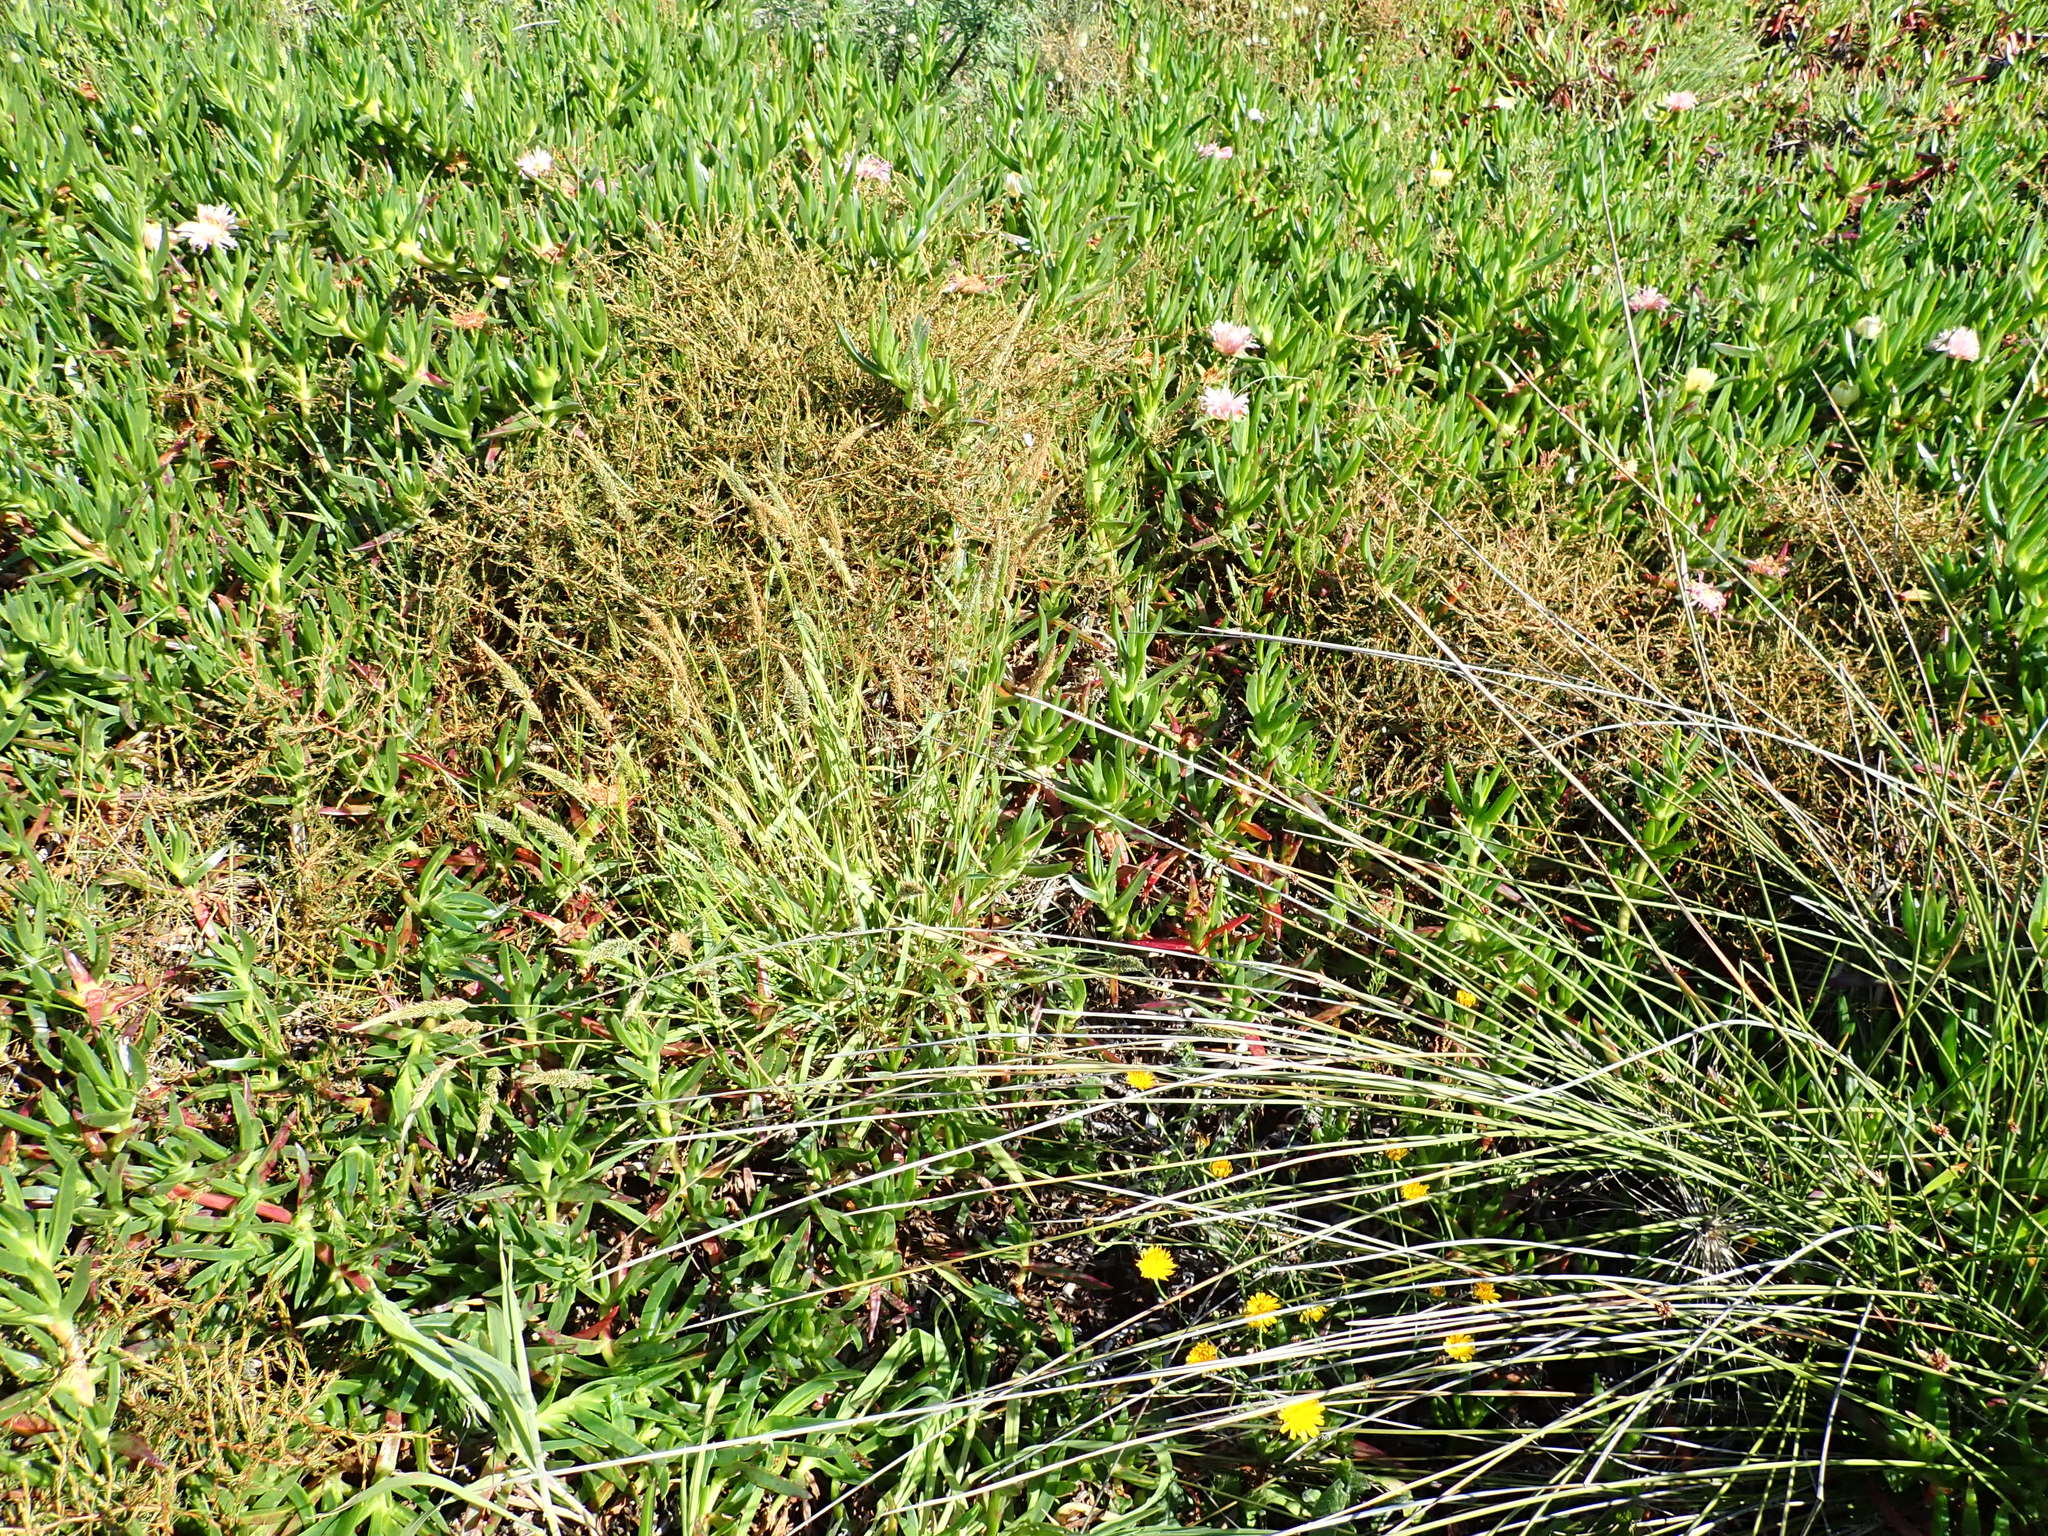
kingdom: Plantae
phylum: Tracheophyta
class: Magnoliopsida
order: Gentianales
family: Rubiaceae
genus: Coprosma
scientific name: Coprosma acerosa
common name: Sand coprosma
